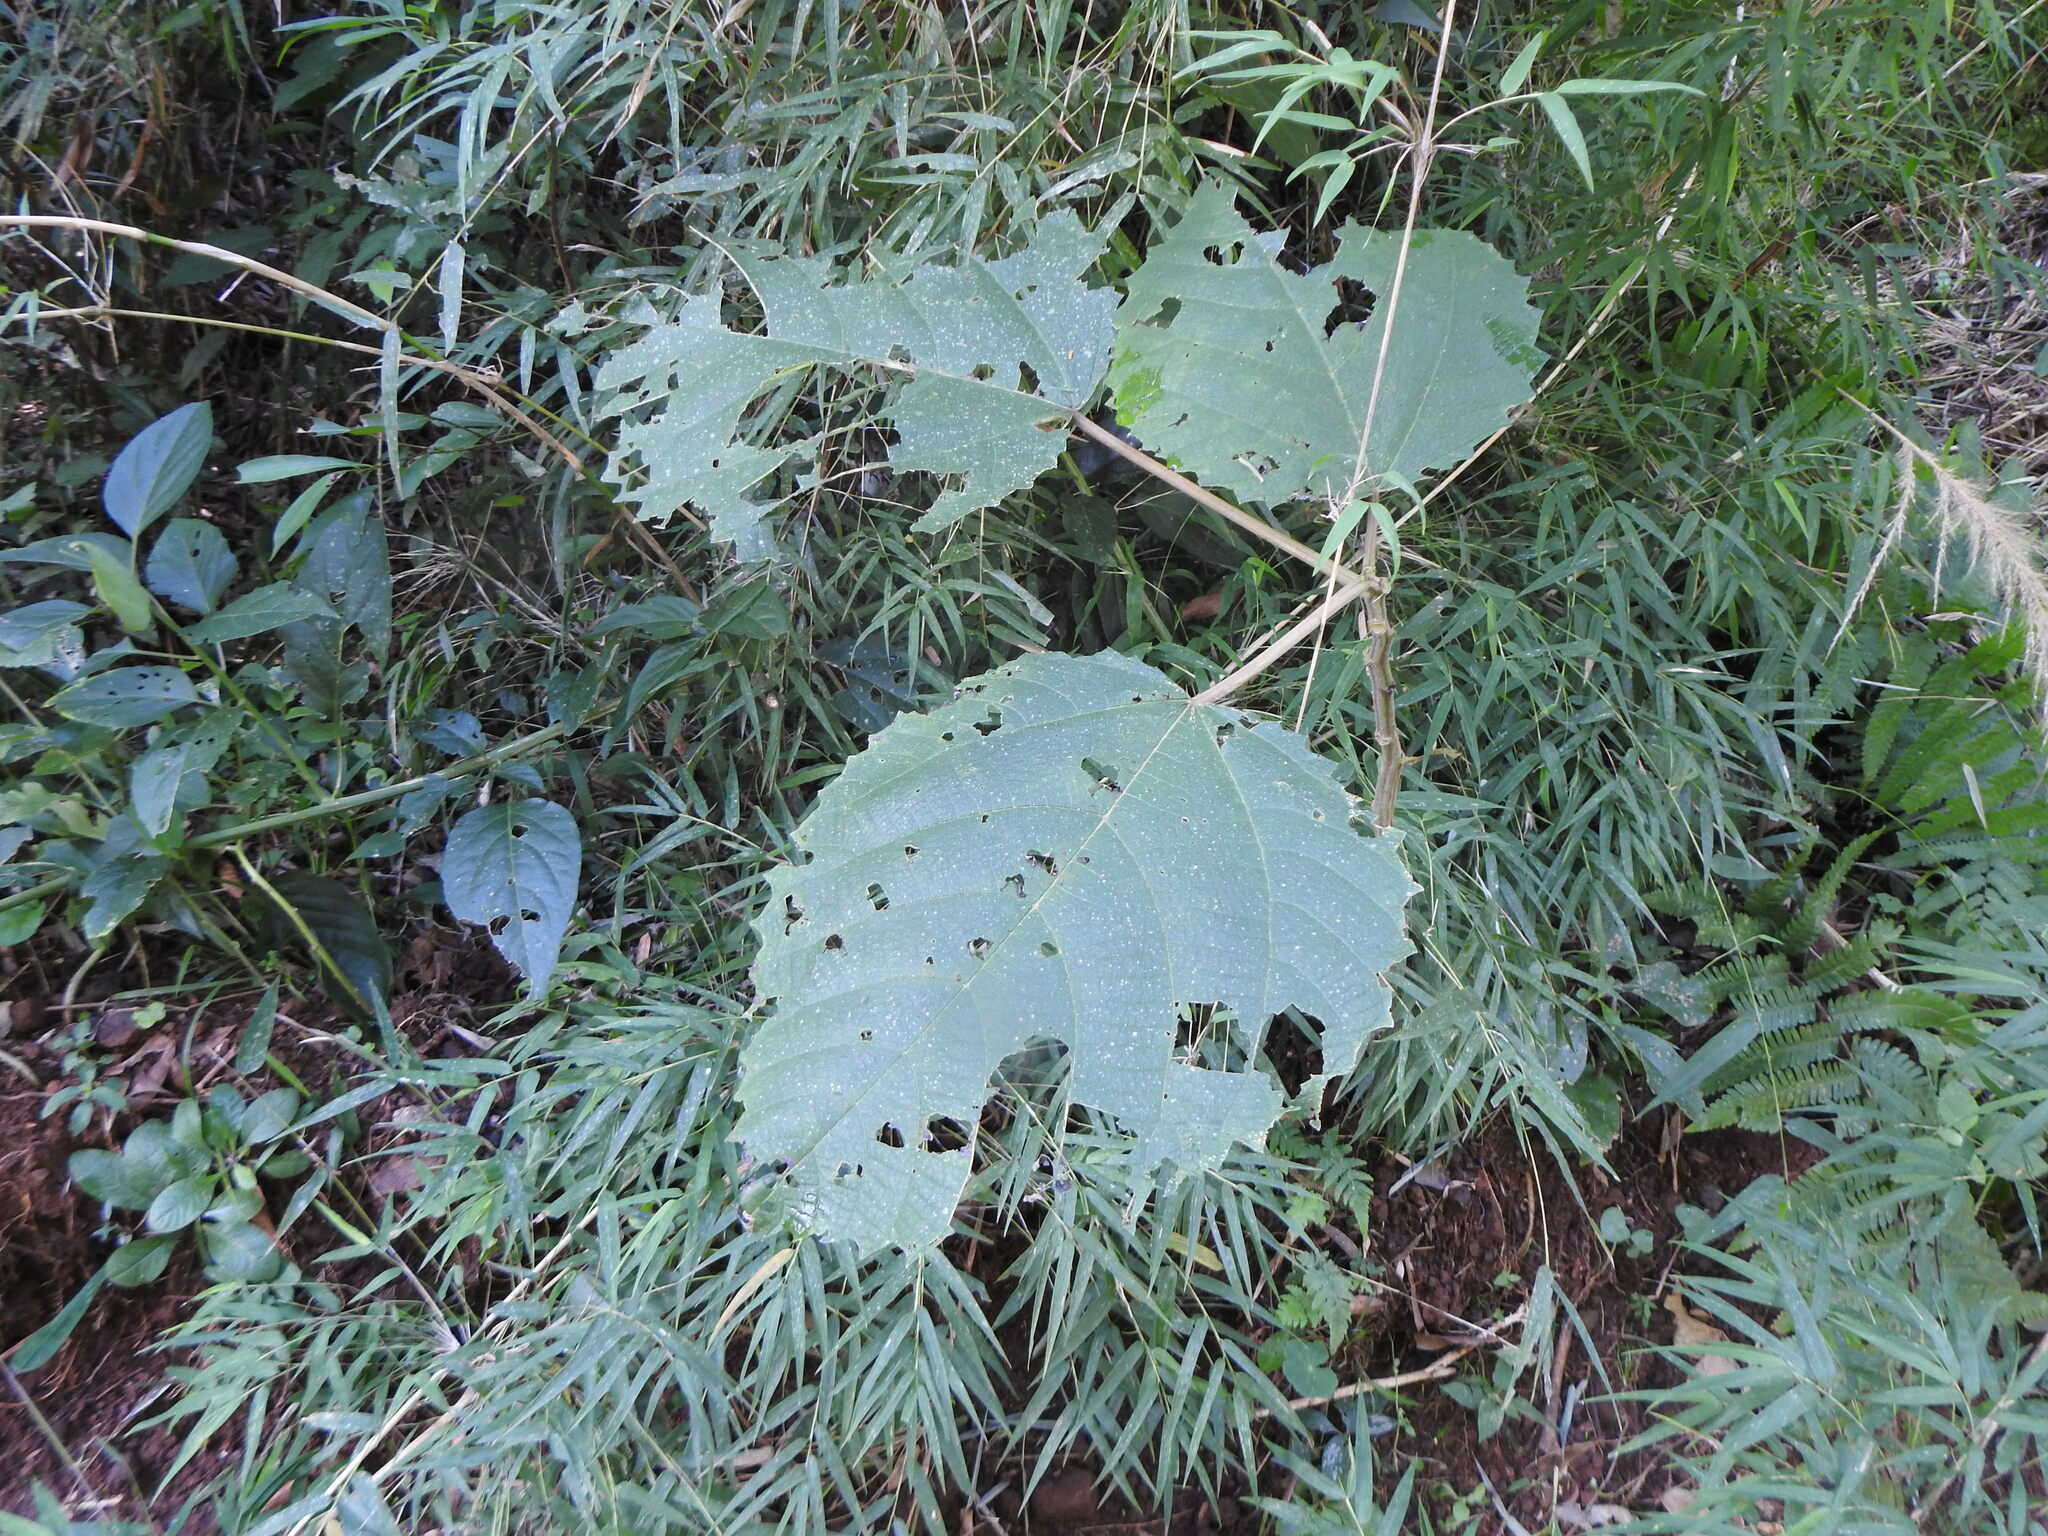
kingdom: Plantae
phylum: Tracheophyta
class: Magnoliopsida
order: Rosales
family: Urticaceae
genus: Urera
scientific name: Urera baccifera
